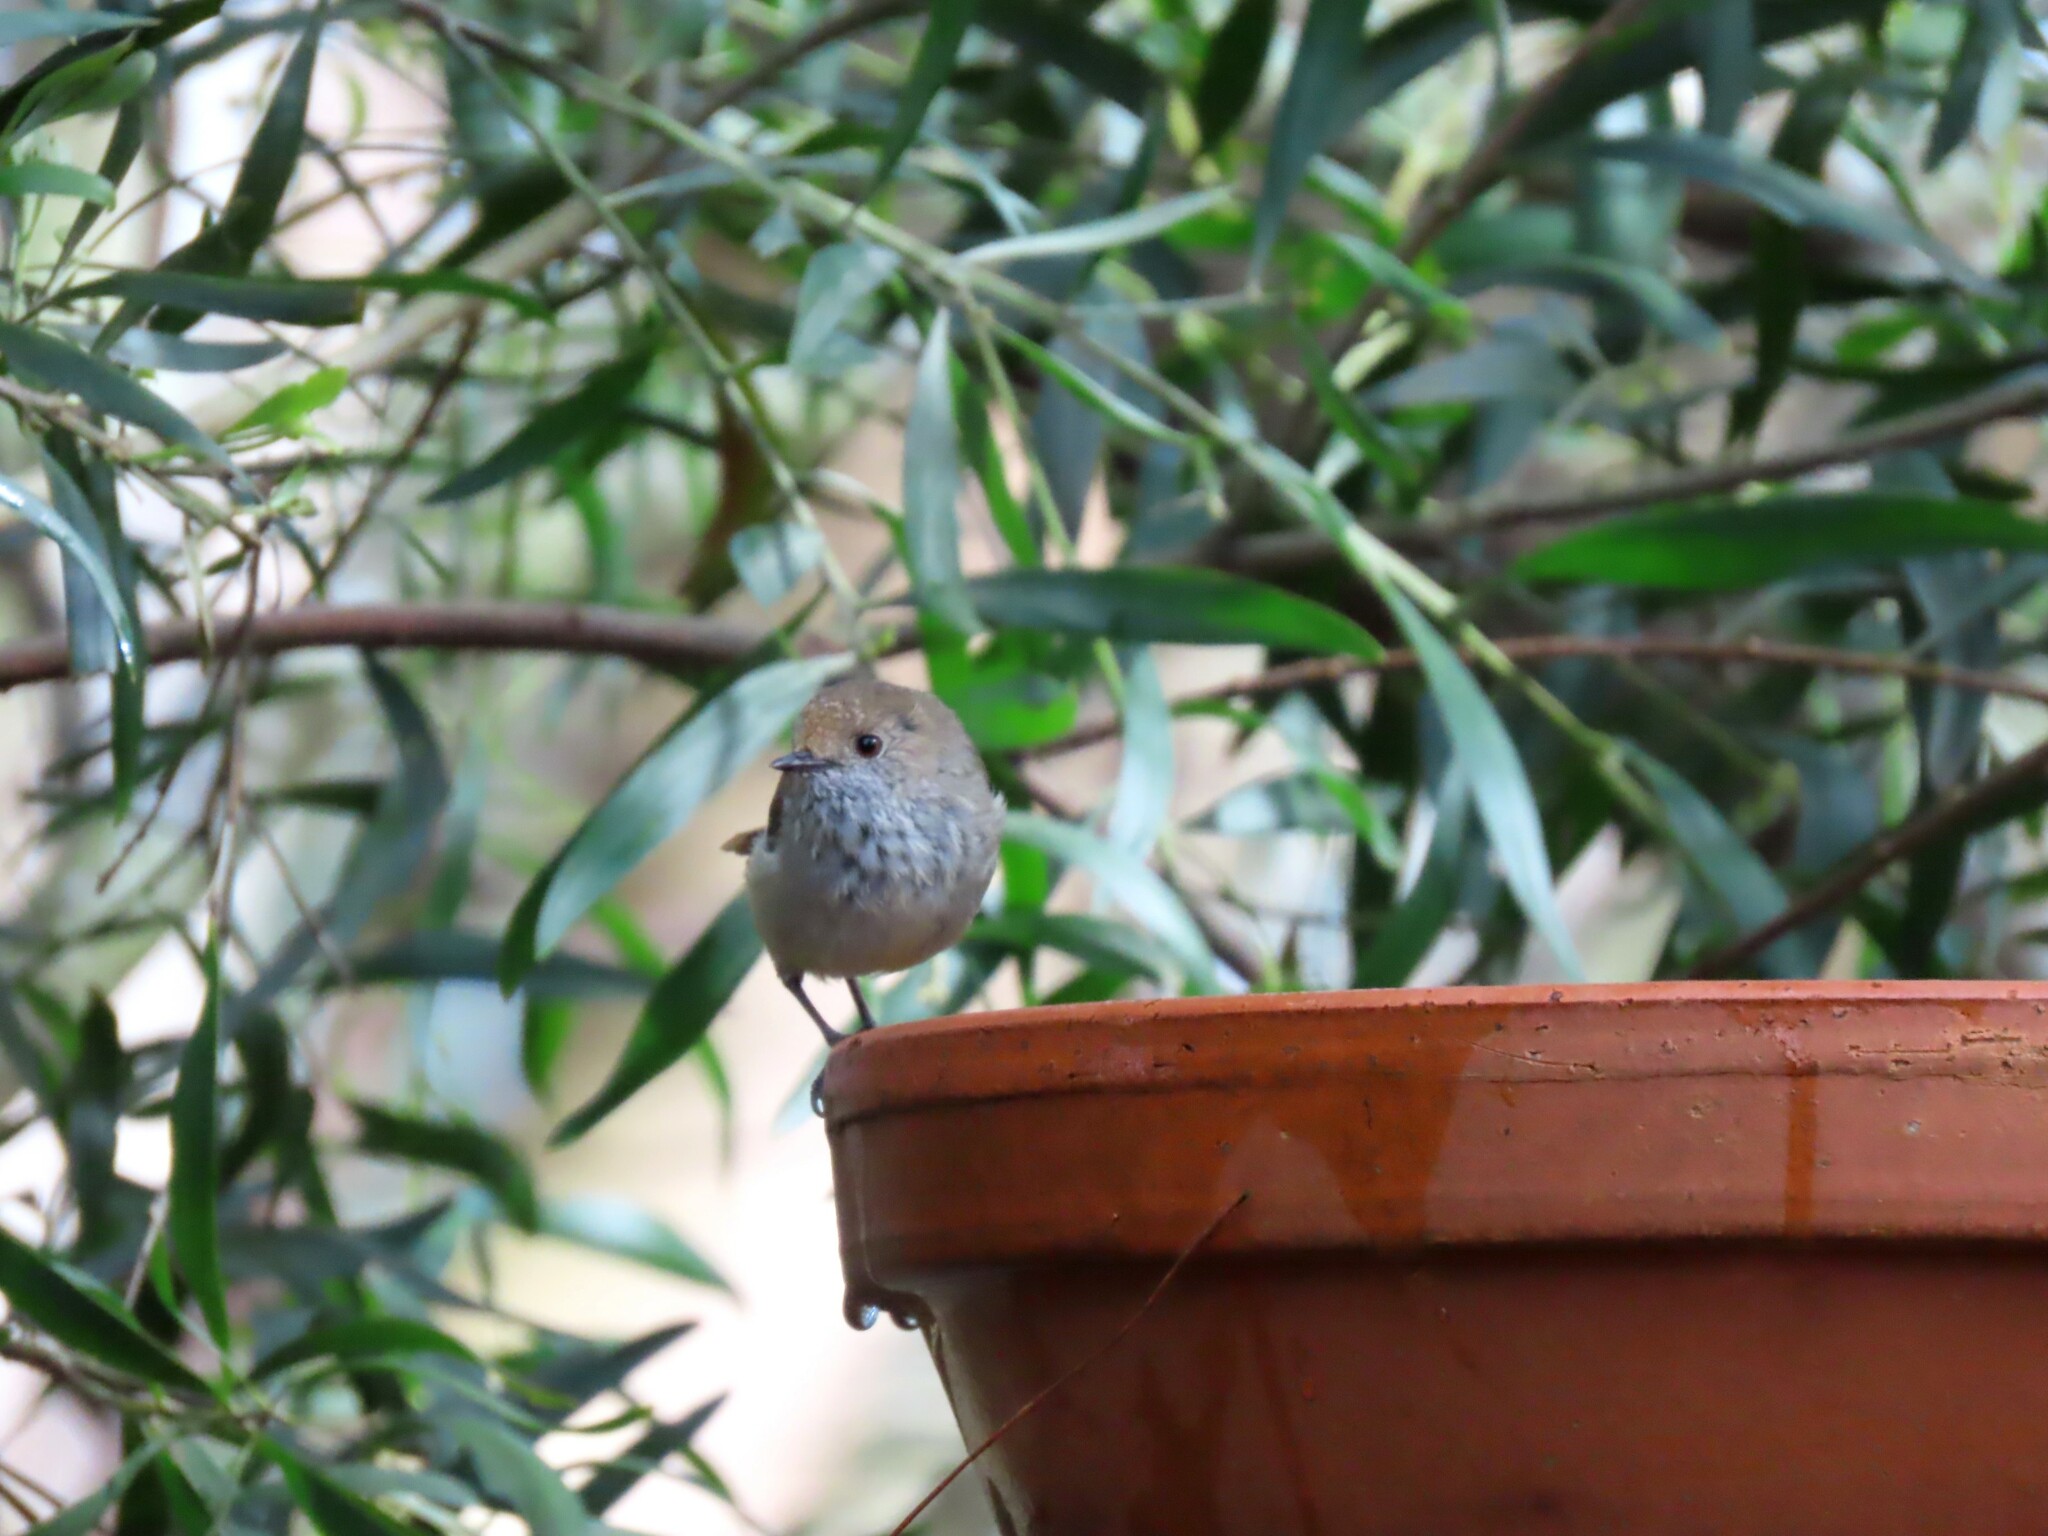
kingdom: Animalia
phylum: Chordata
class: Aves
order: Passeriformes
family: Acanthizidae
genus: Acanthiza
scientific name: Acanthiza pusilla
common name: Brown thornbill
